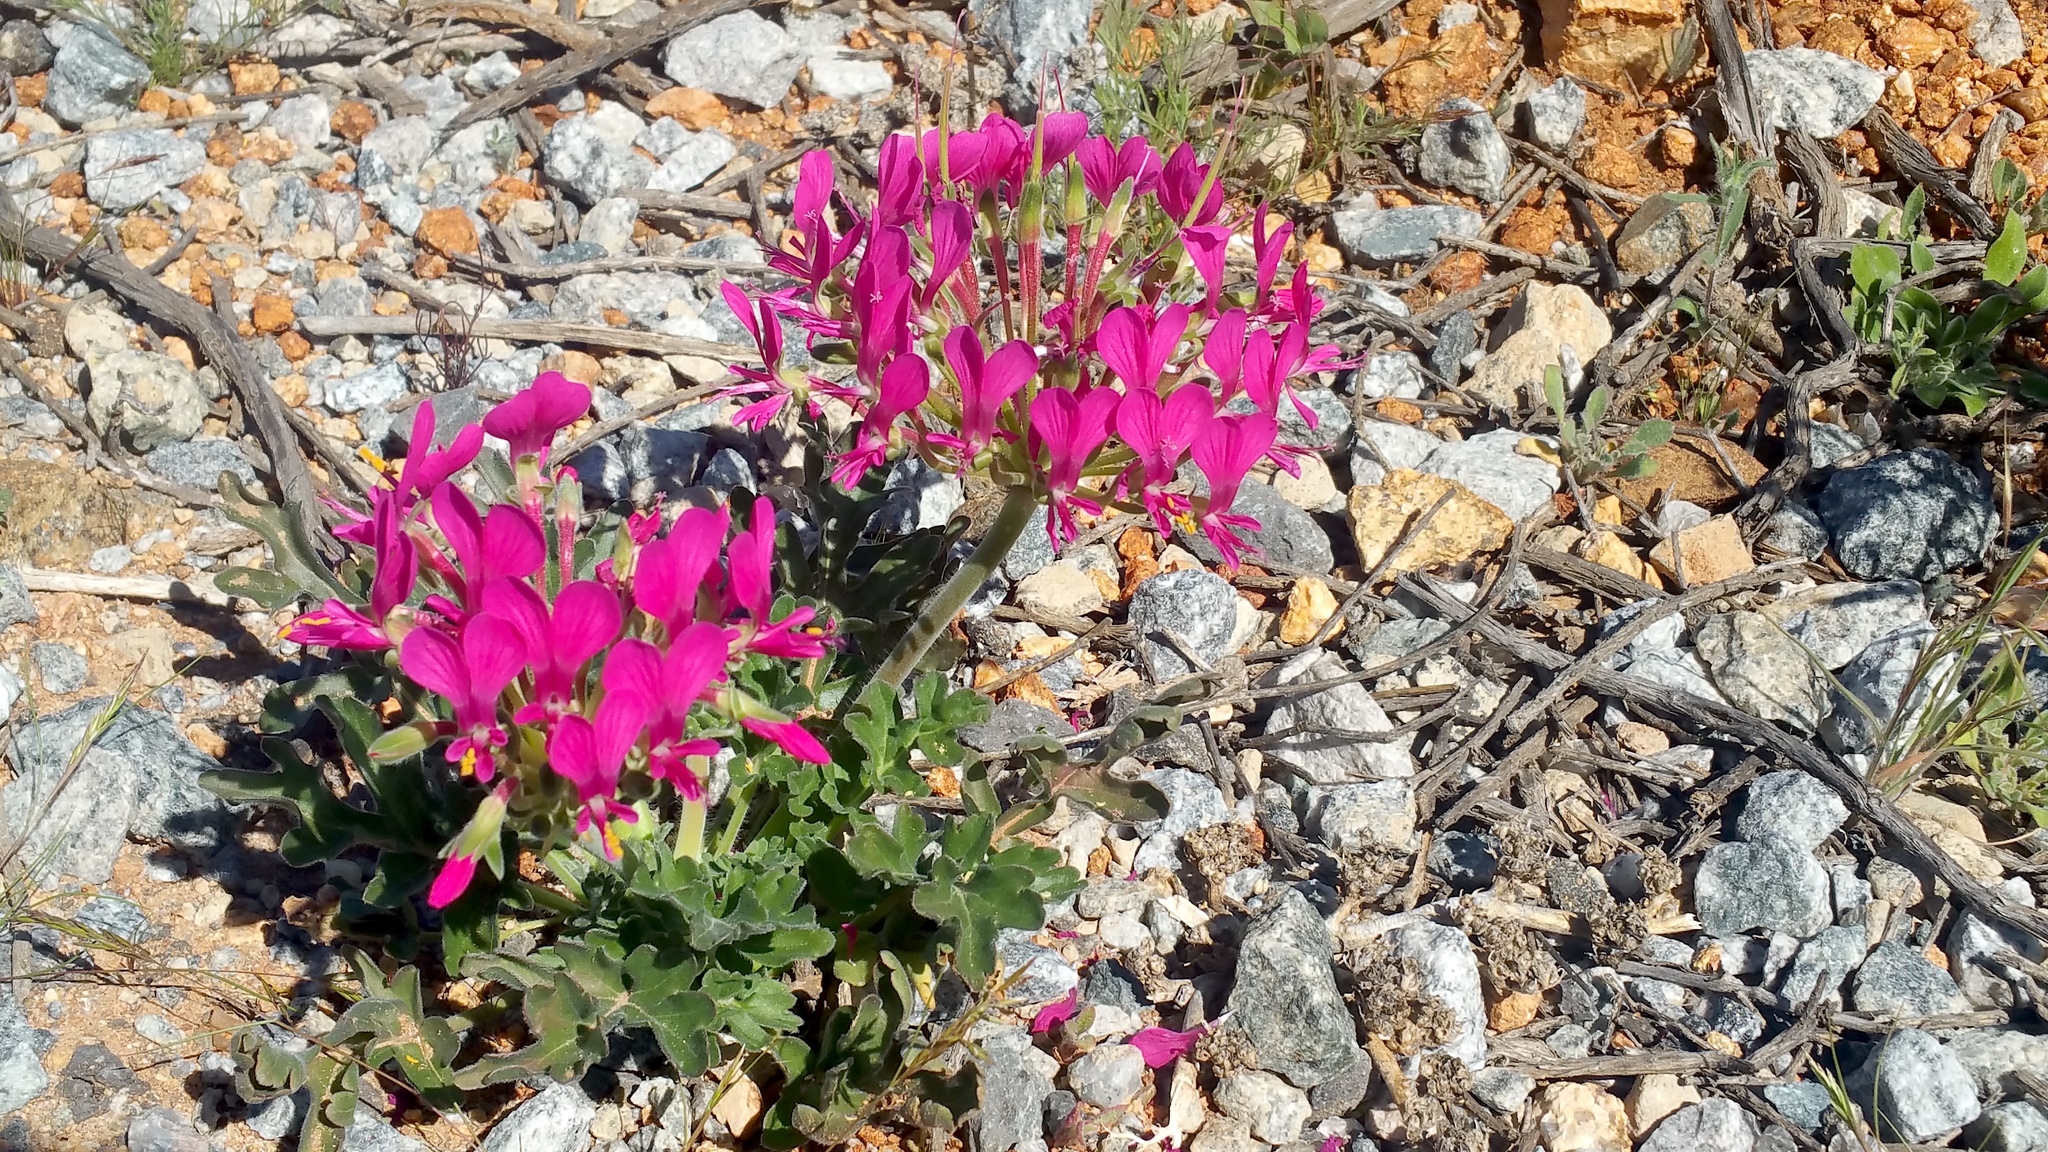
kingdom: Plantae
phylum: Tracheophyta
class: Magnoliopsida
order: Geraniales
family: Geraniaceae
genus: Pelargonium
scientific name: Pelargonium incrassatum
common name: Namaqualand beauty
